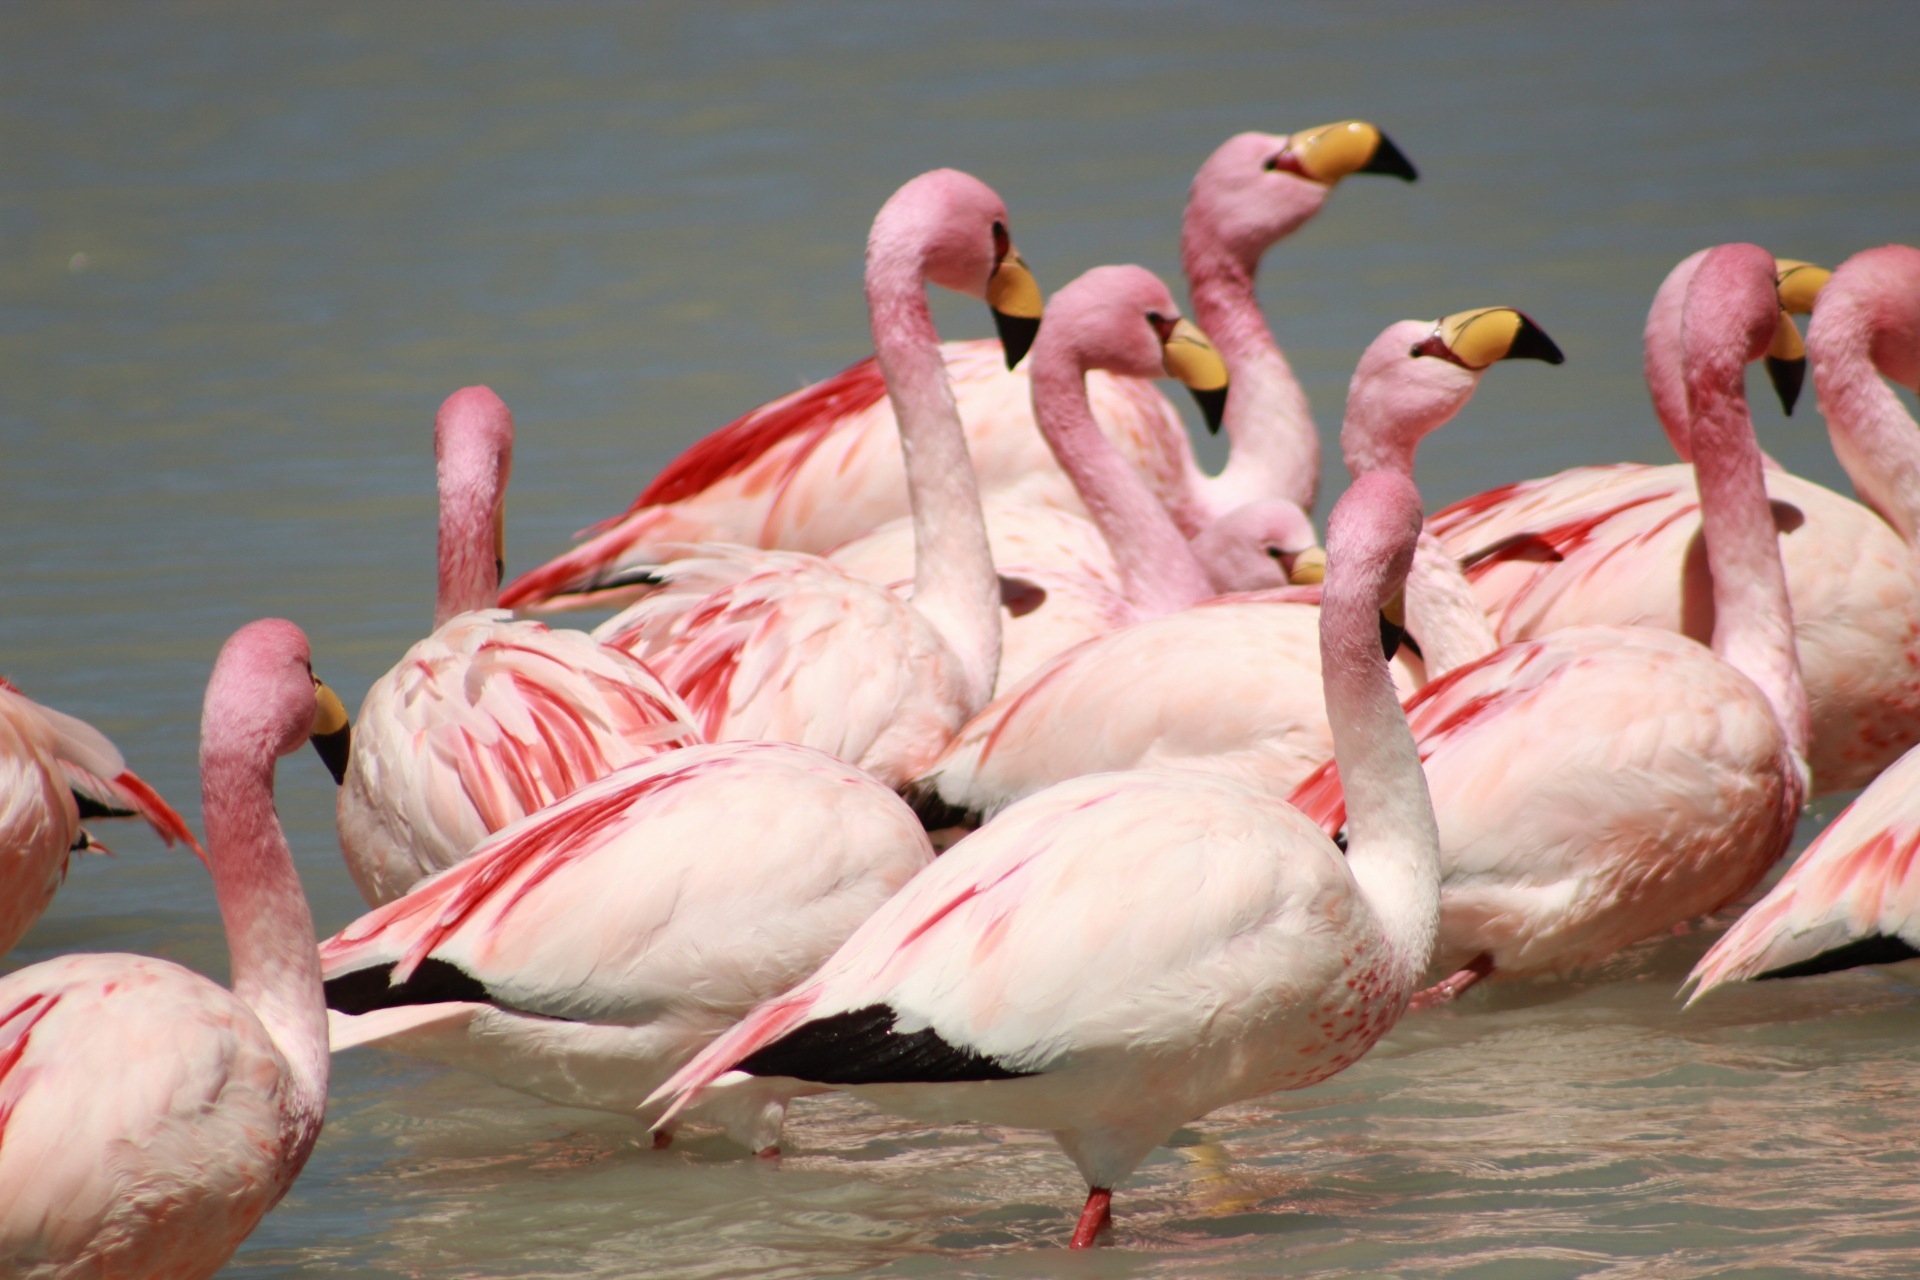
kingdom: Animalia
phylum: Chordata
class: Aves
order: Phoenicopteriformes
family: Phoenicopteridae
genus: Phoenicoparrus
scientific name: Phoenicoparrus jamesi
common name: James's flamingo
